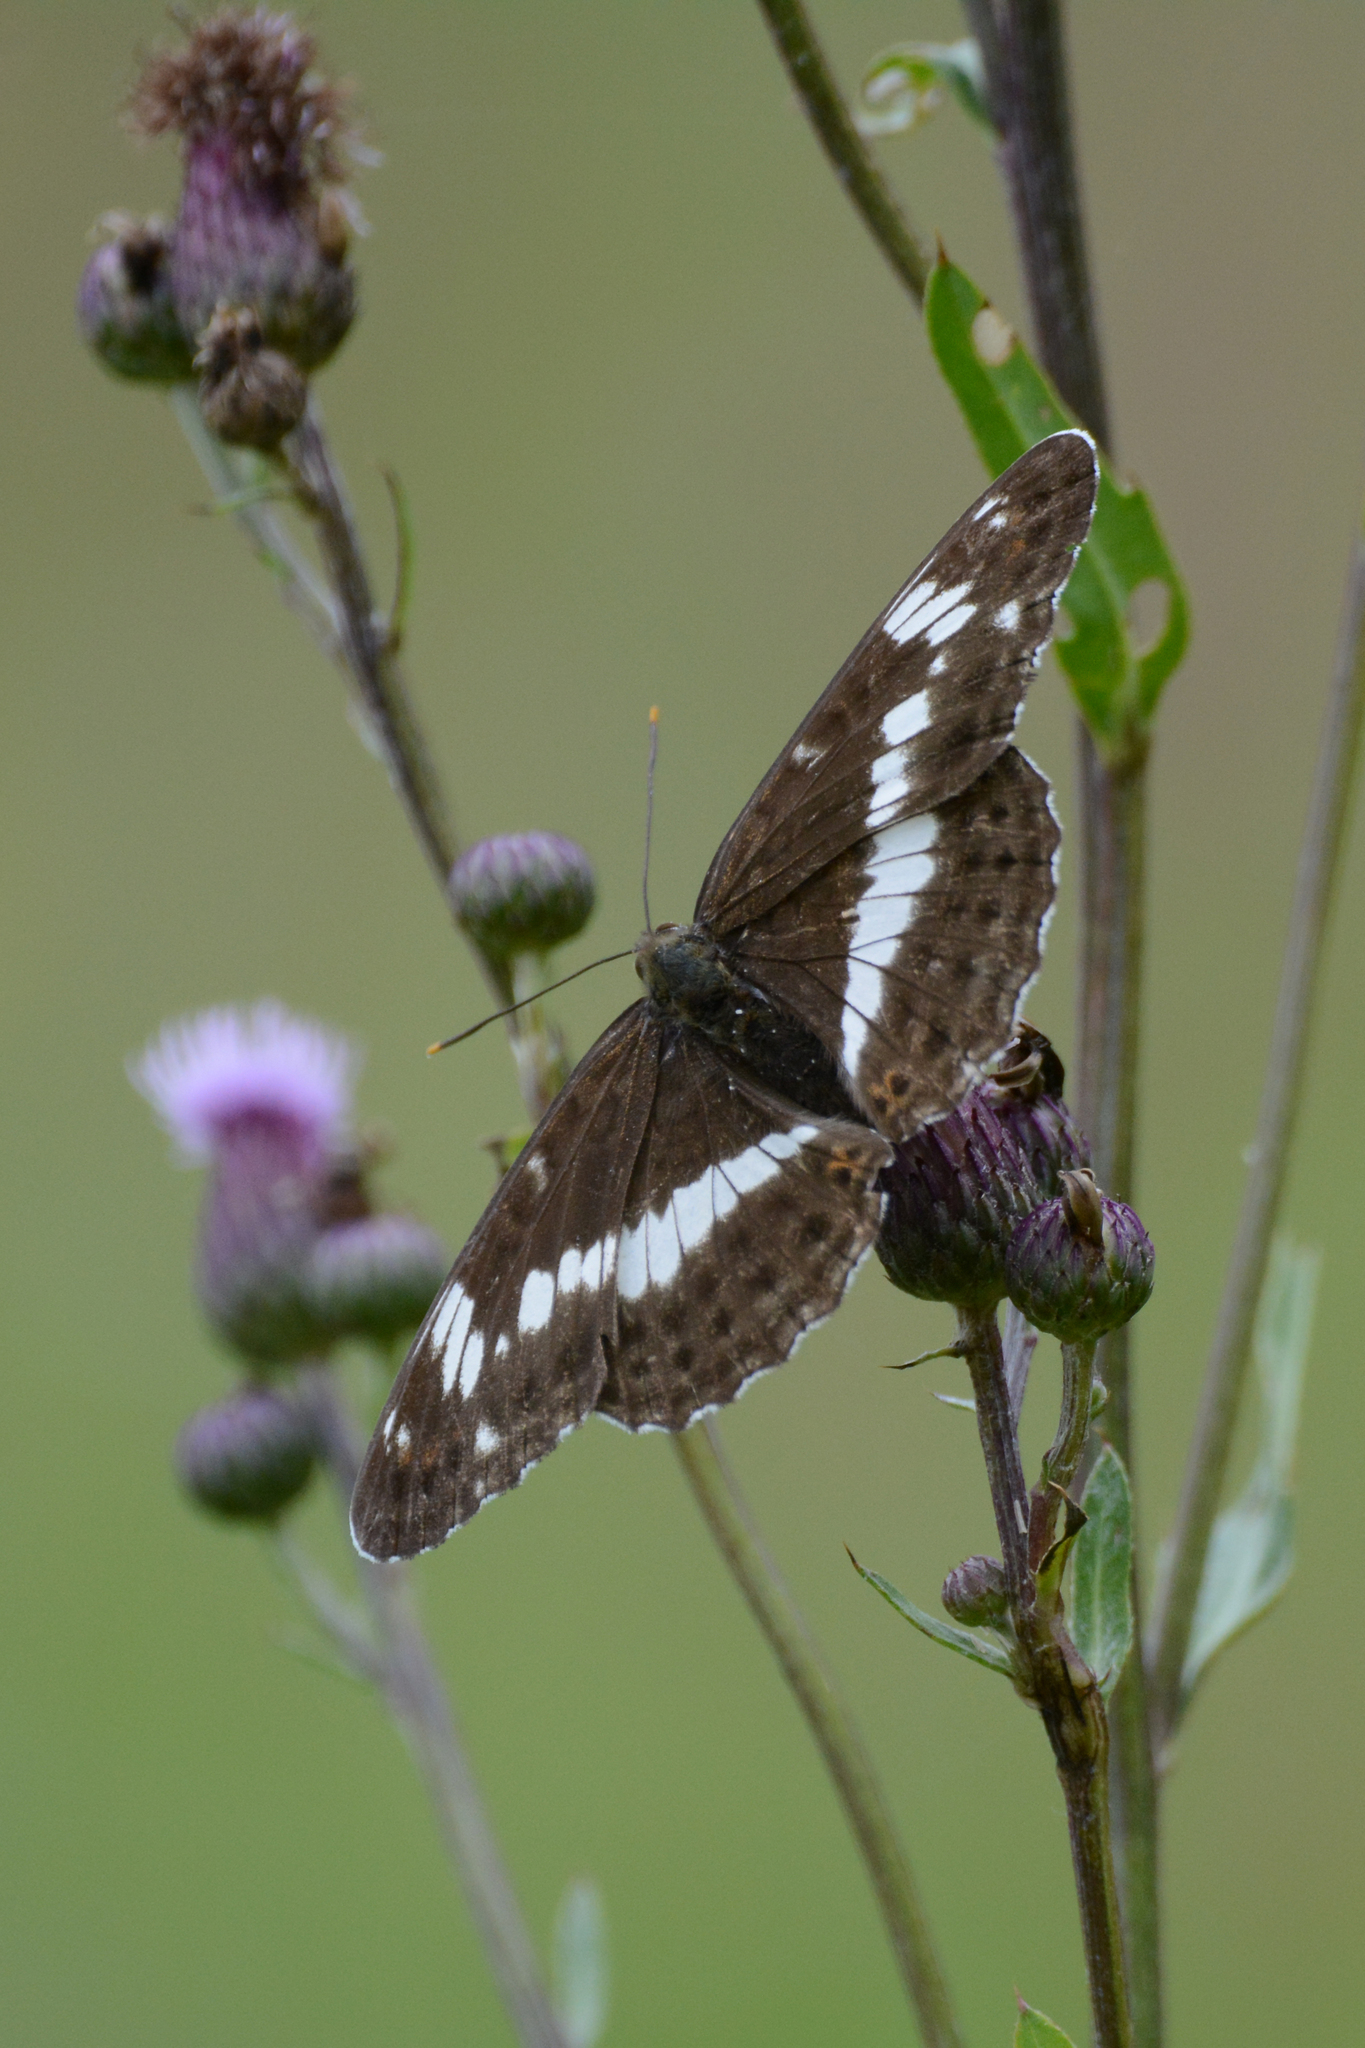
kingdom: Animalia
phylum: Arthropoda
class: Insecta
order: Lepidoptera
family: Nymphalidae
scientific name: Nymphalidae
